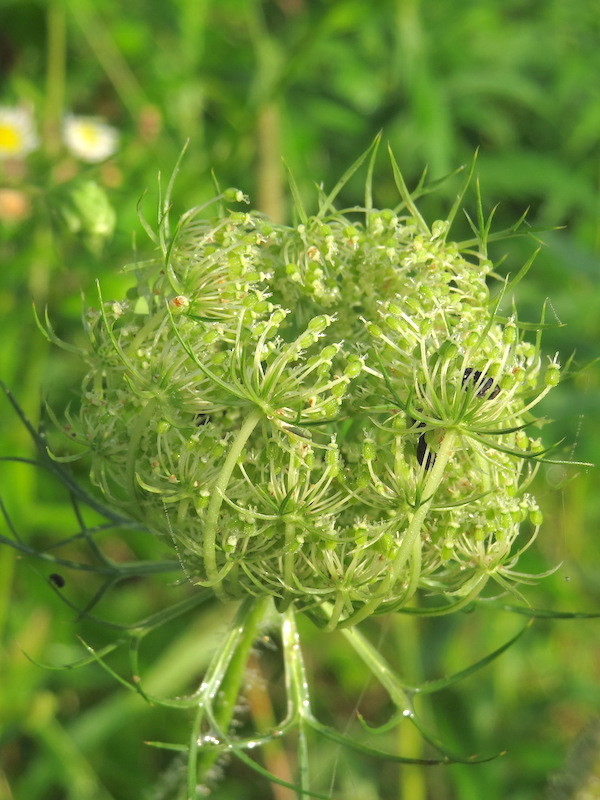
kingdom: Plantae
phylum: Tracheophyta
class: Magnoliopsida
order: Apiales
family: Apiaceae
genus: Daucus
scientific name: Daucus carota
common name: Wild carrot
